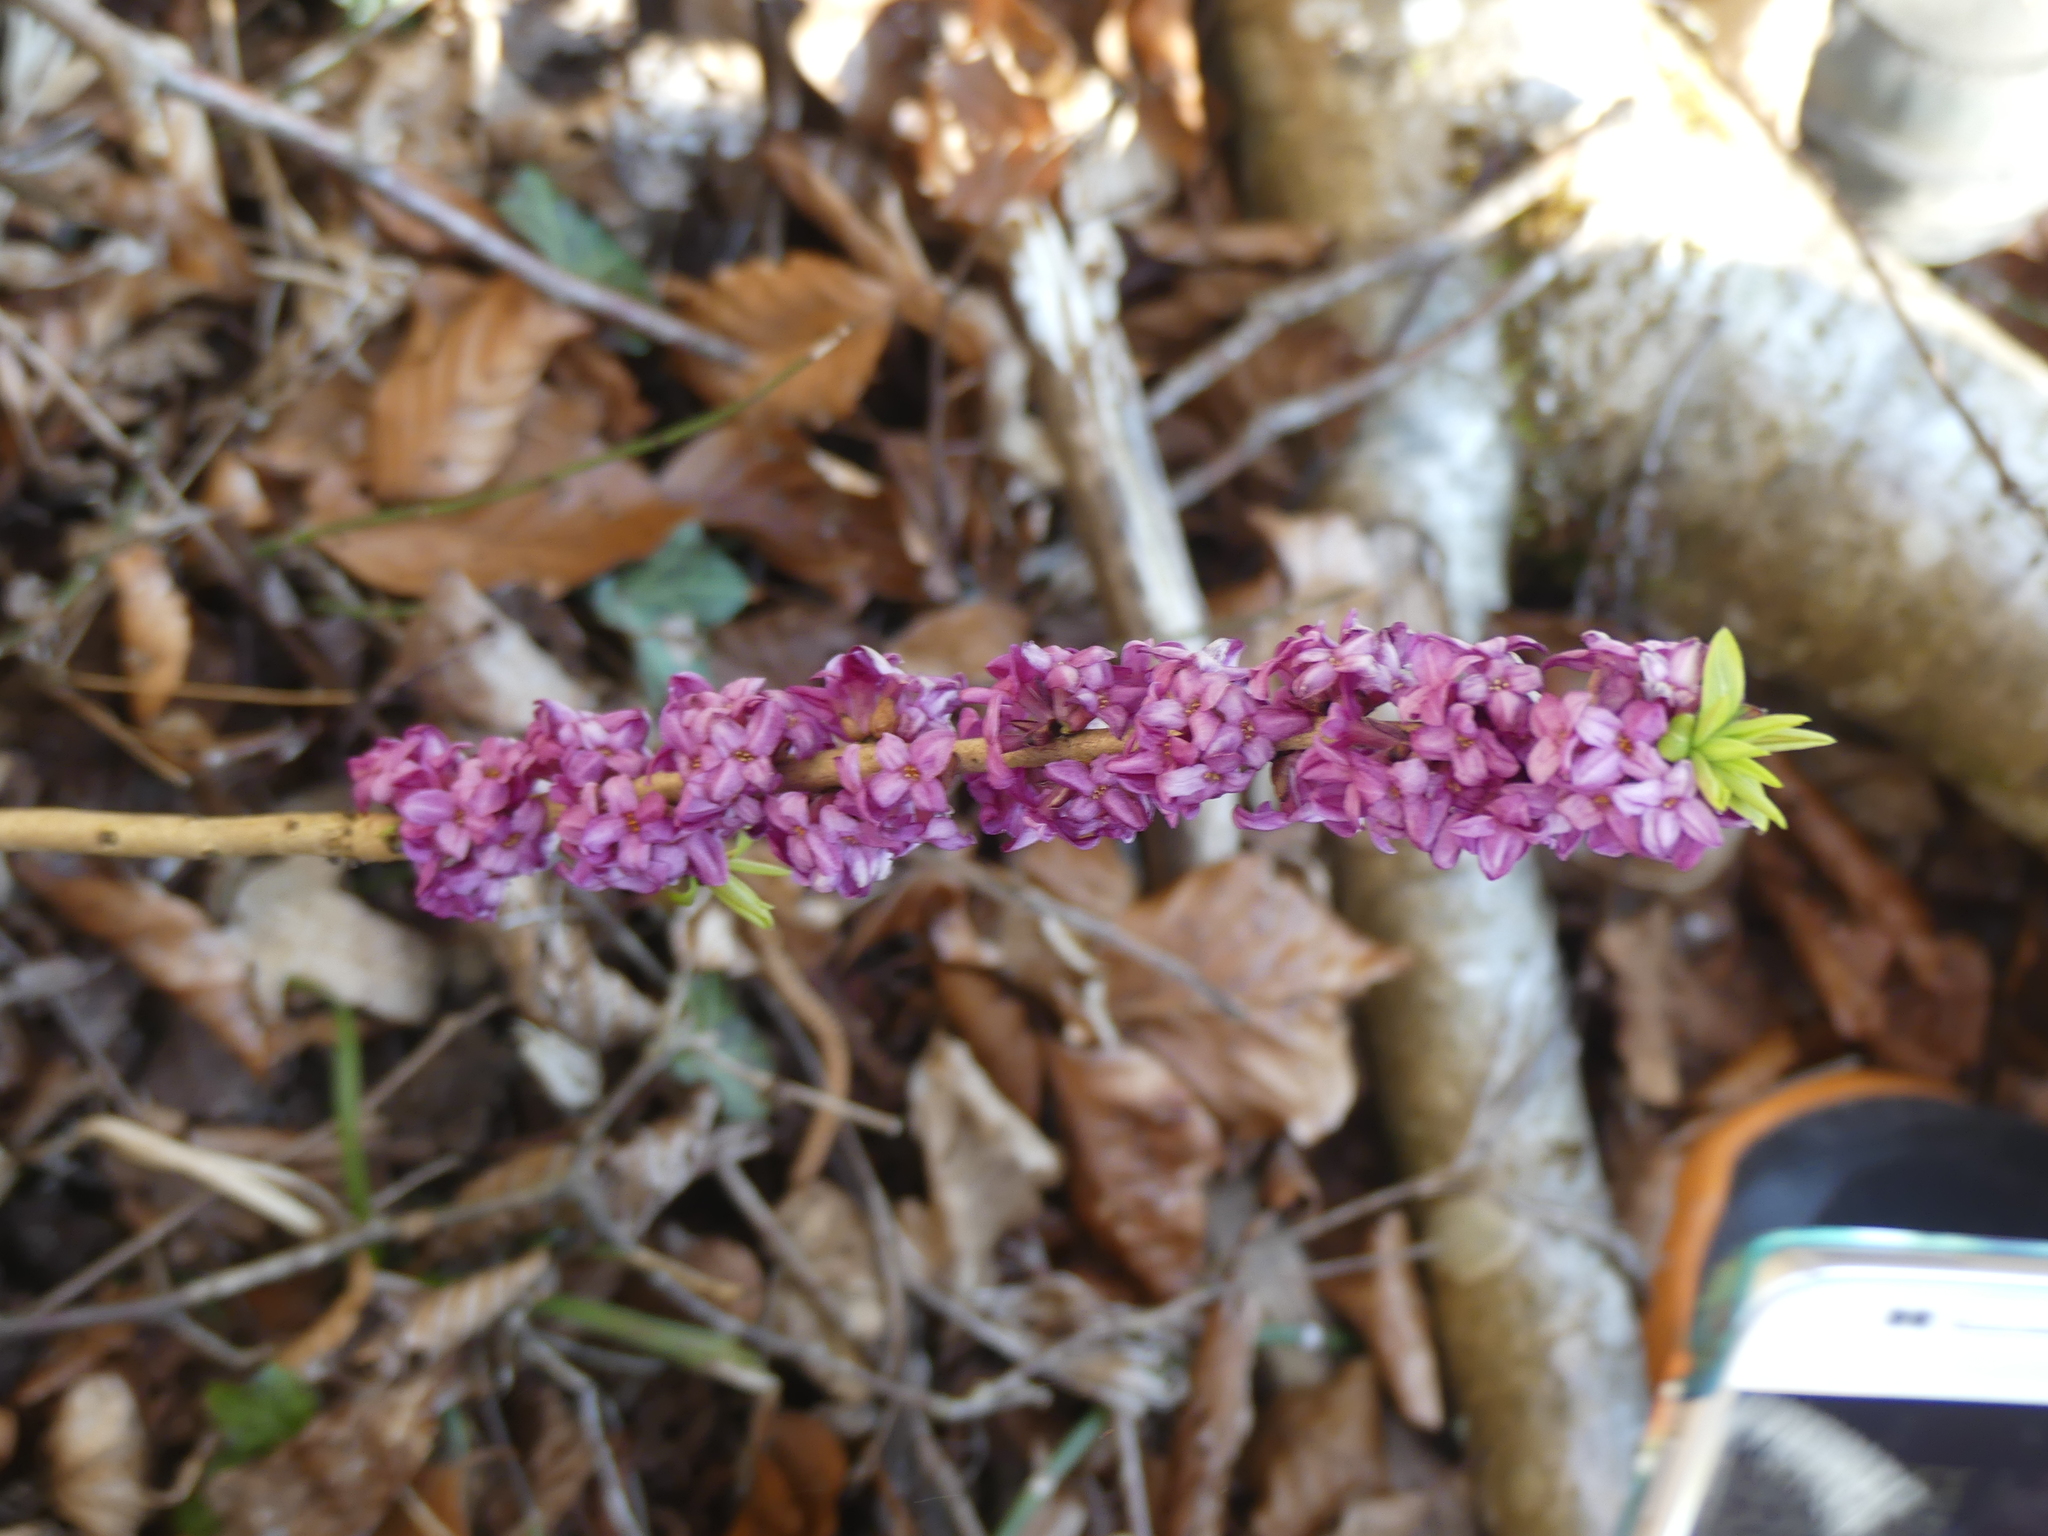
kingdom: Plantae
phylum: Tracheophyta
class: Magnoliopsida
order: Malvales
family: Thymelaeaceae
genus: Daphne
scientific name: Daphne mezereum
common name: Mezereon
